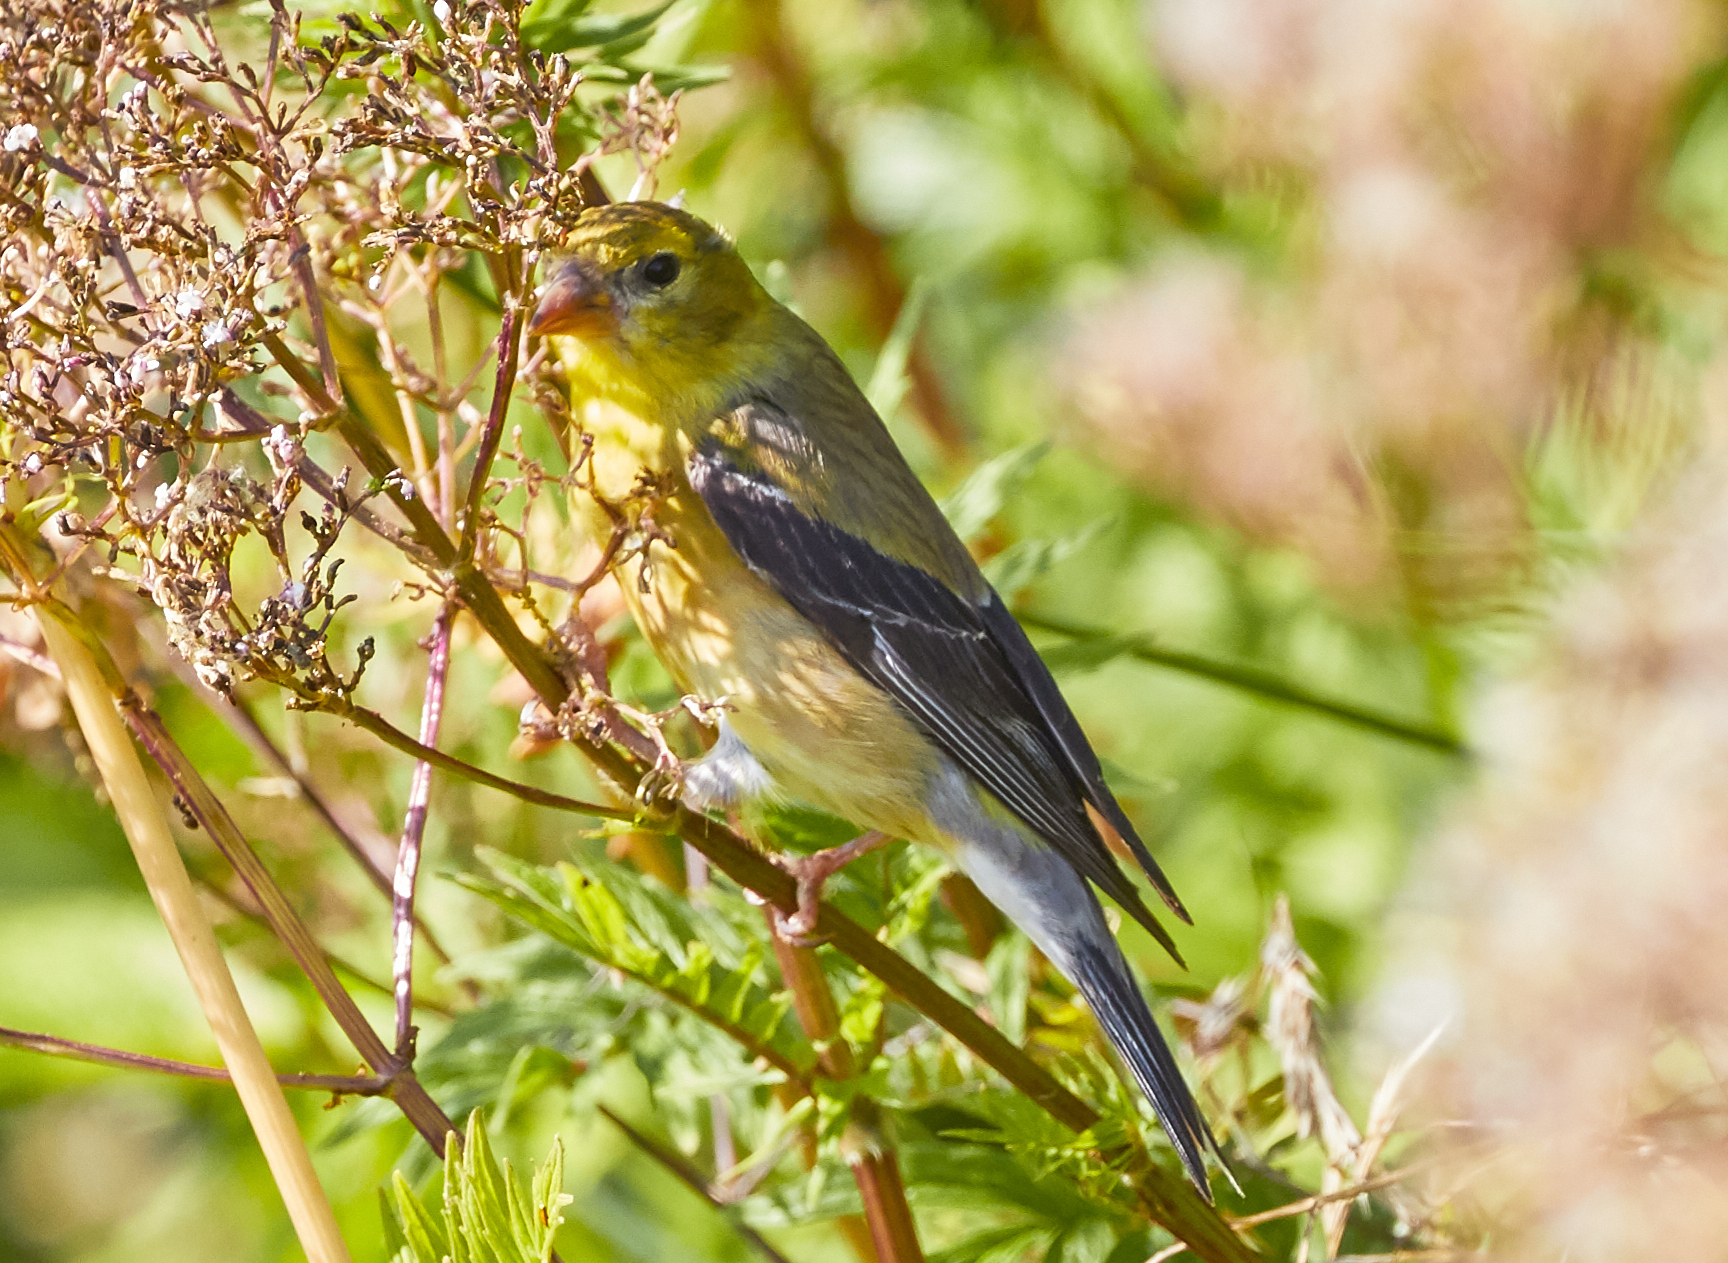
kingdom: Animalia
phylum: Chordata
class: Aves
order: Passeriformes
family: Fringillidae
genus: Spinus
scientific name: Spinus tristis
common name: American goldfinch
